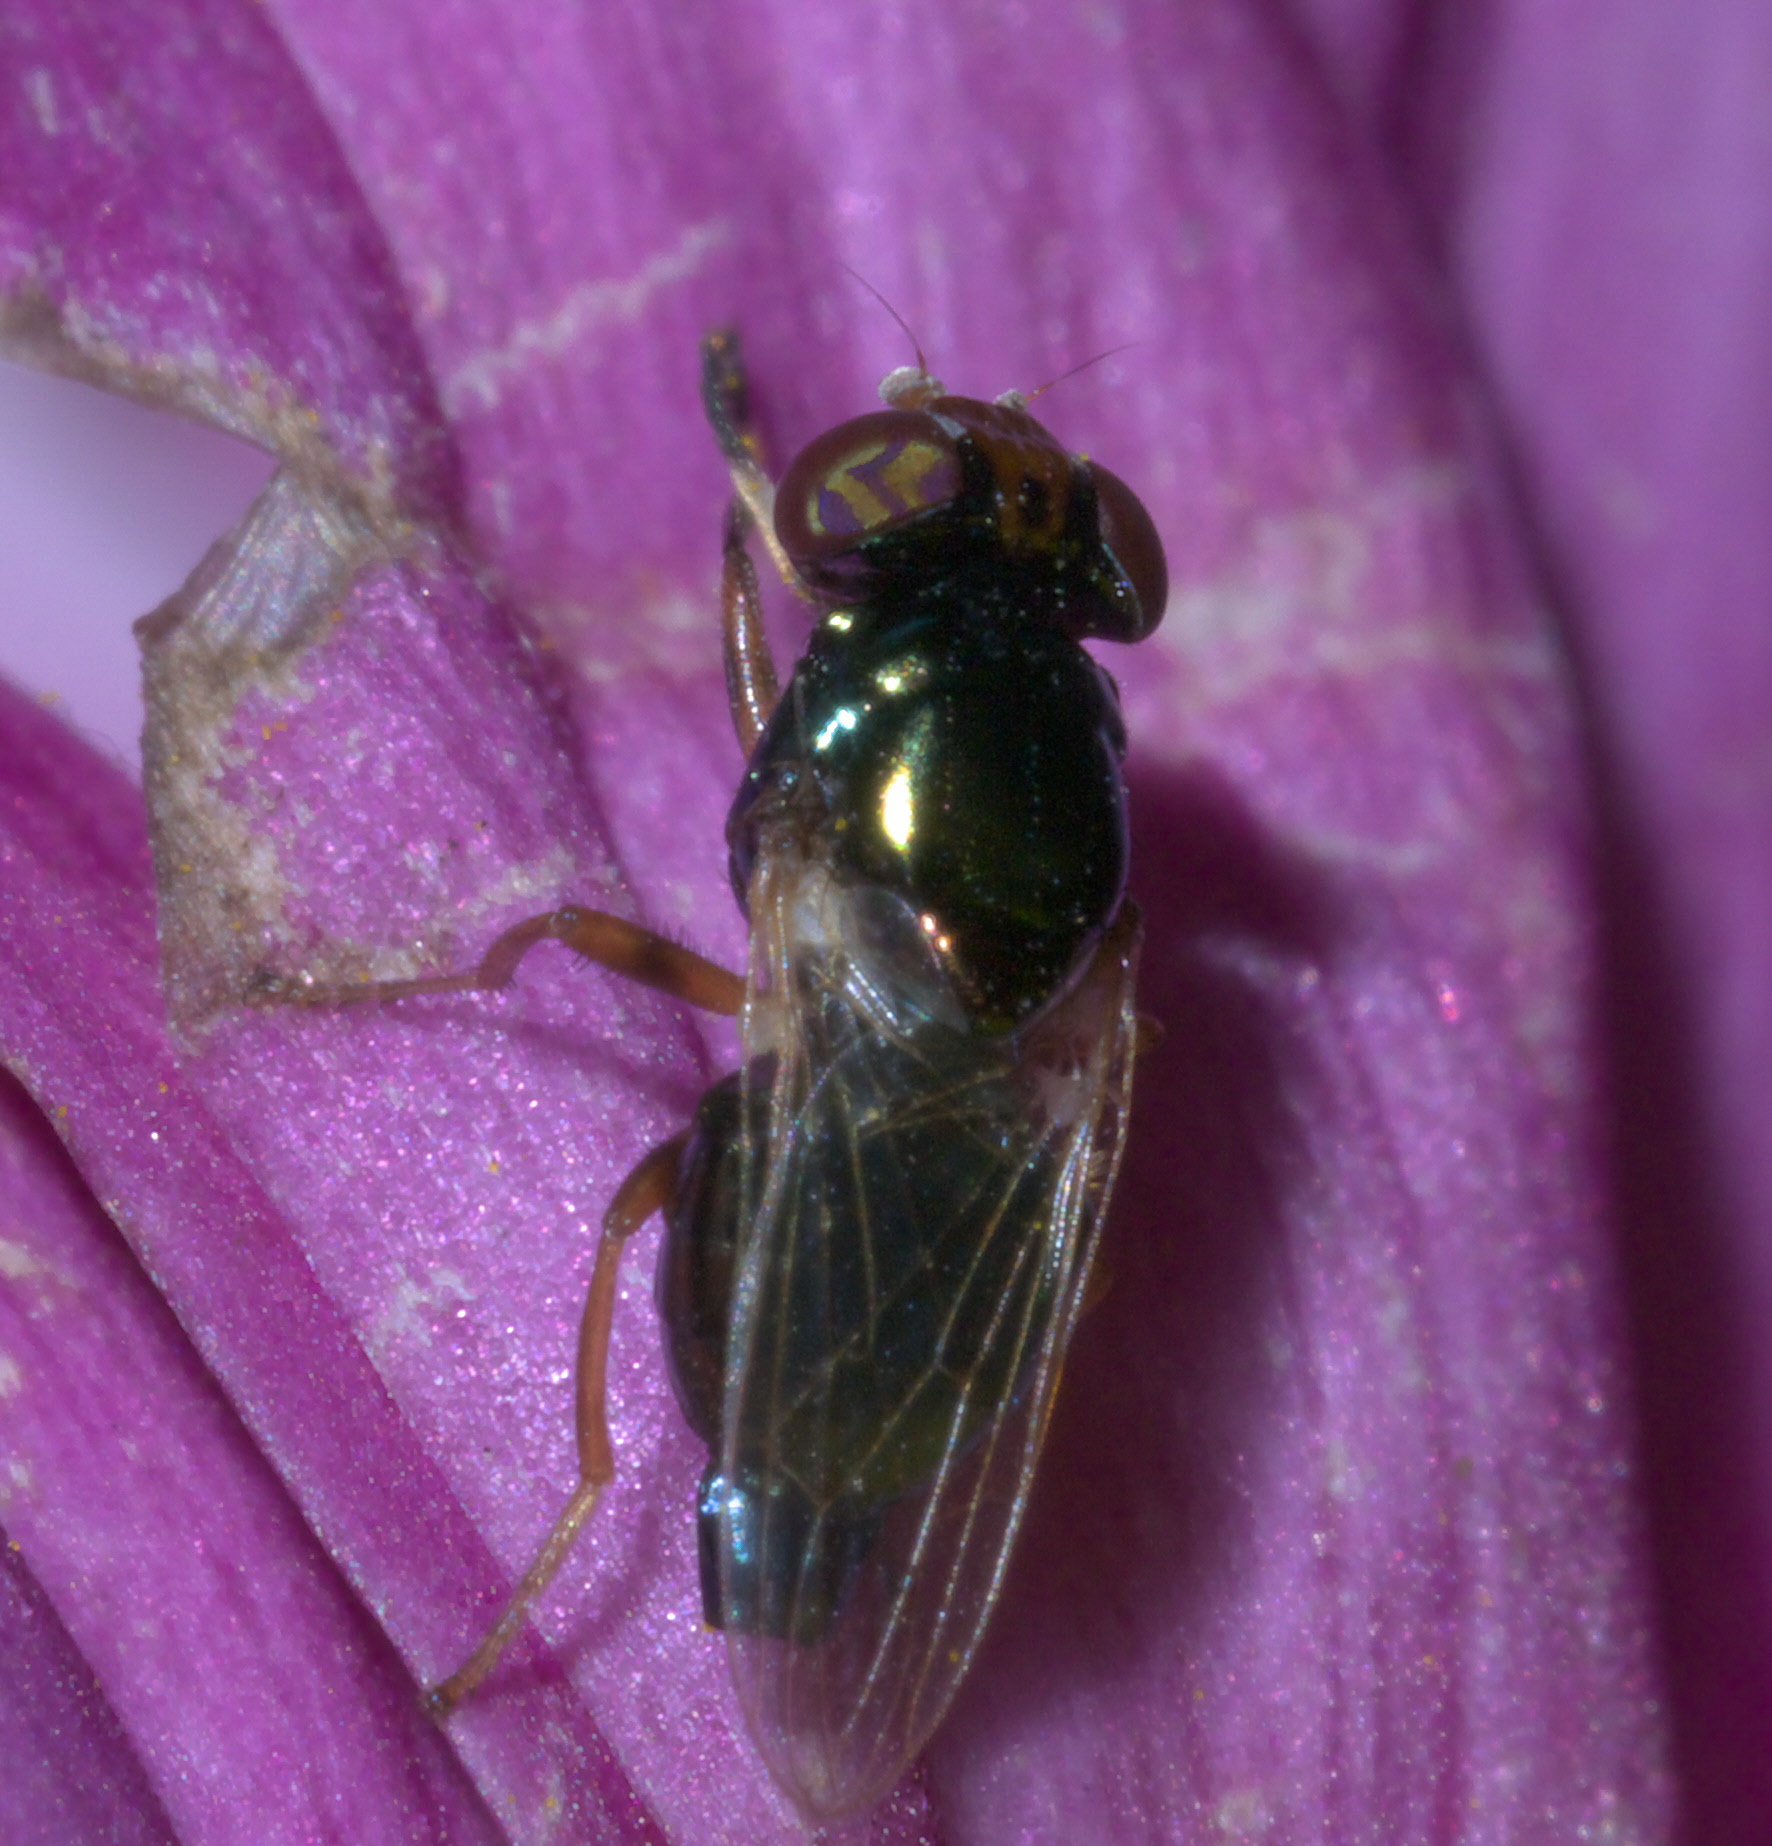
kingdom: Animalia
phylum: Arthropoda
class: Insecta
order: Diptera
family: Ulidiidae
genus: Physiphora
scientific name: Physiphora clausa
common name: Picture-winged fly
